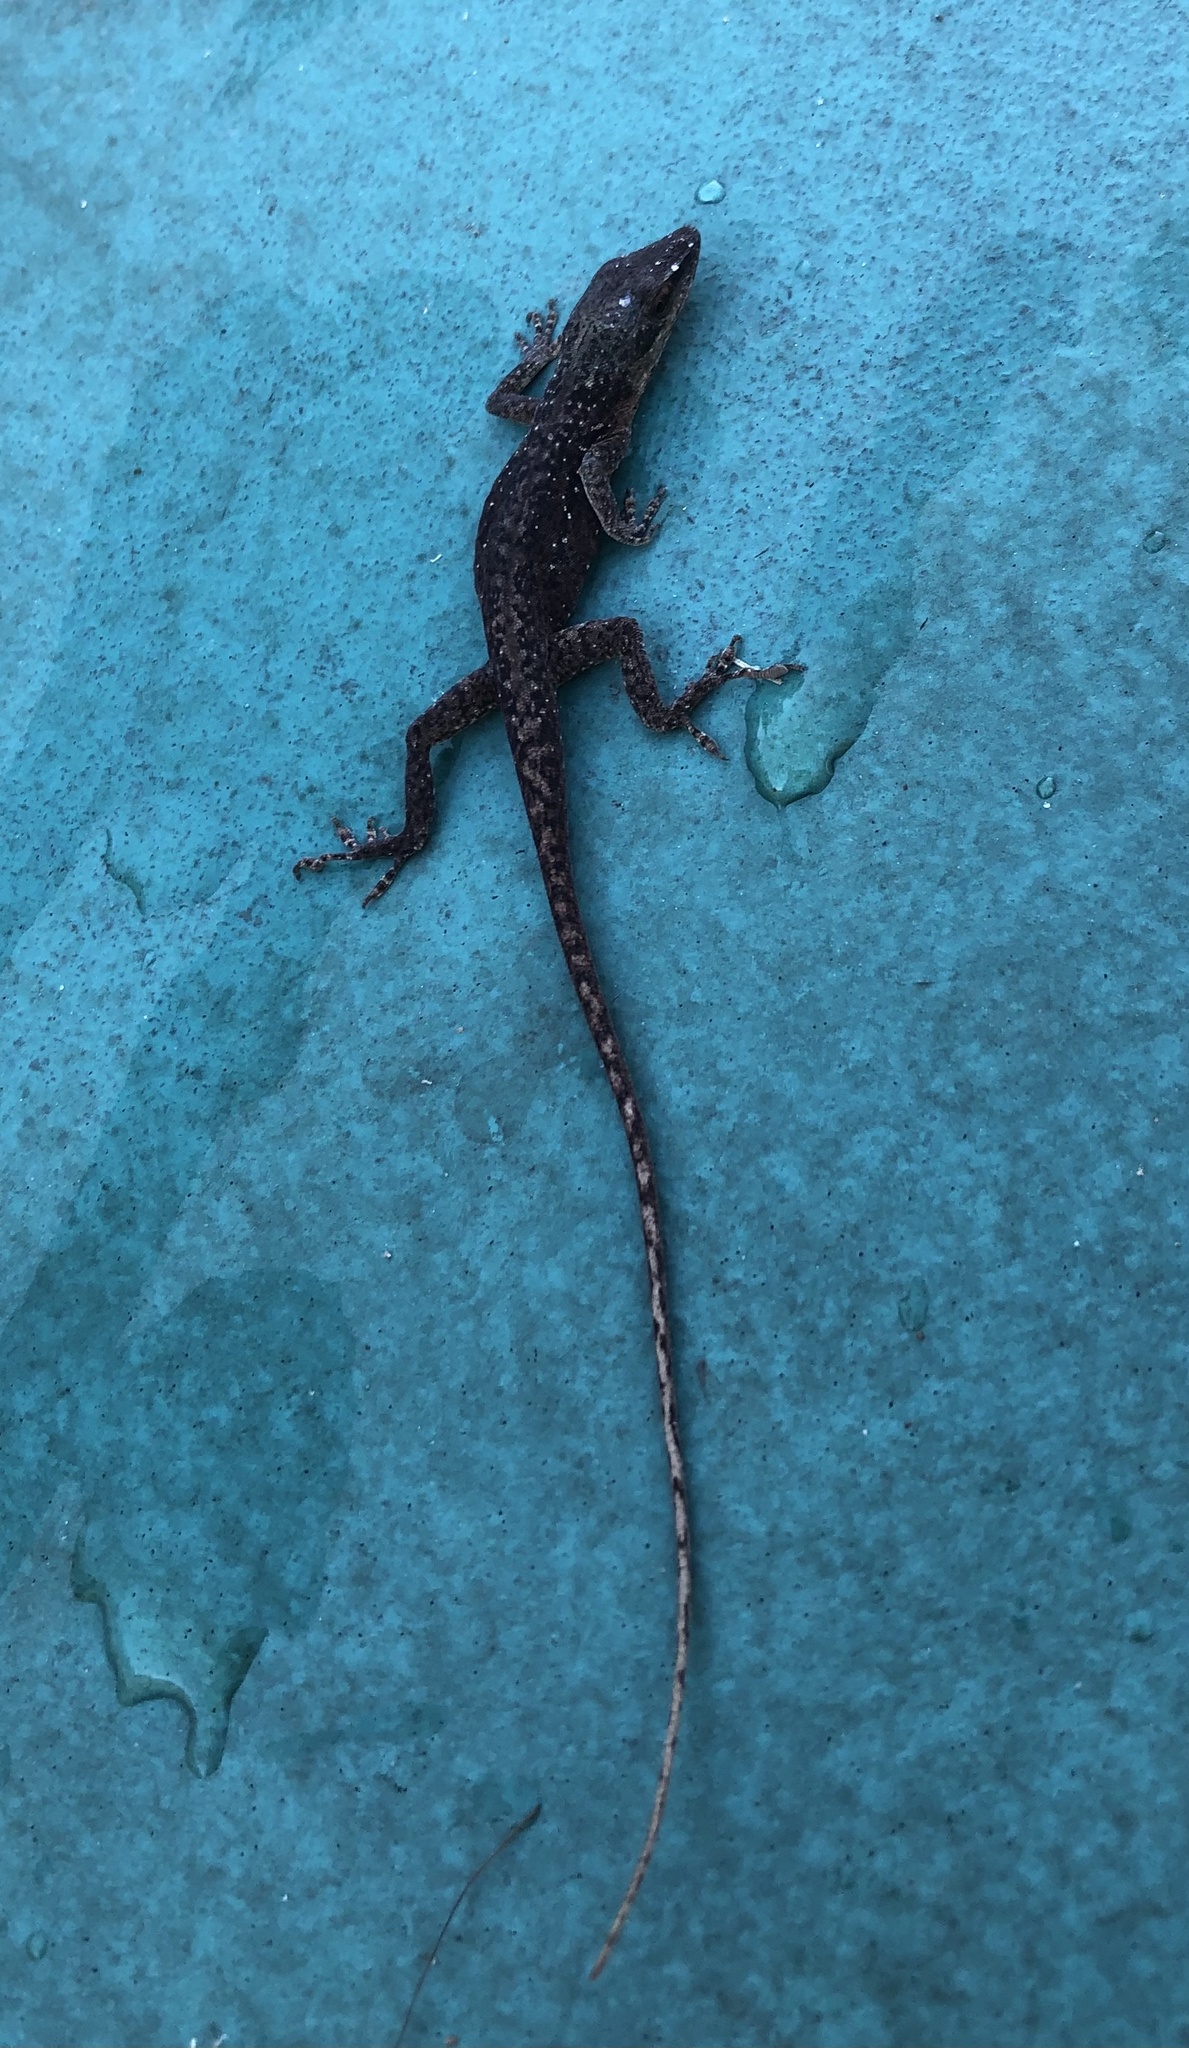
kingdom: Animalia
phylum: Chordata
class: Squamata
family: Dactyloidae
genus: Anolis
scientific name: Anolis carolinensis
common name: Green anole
